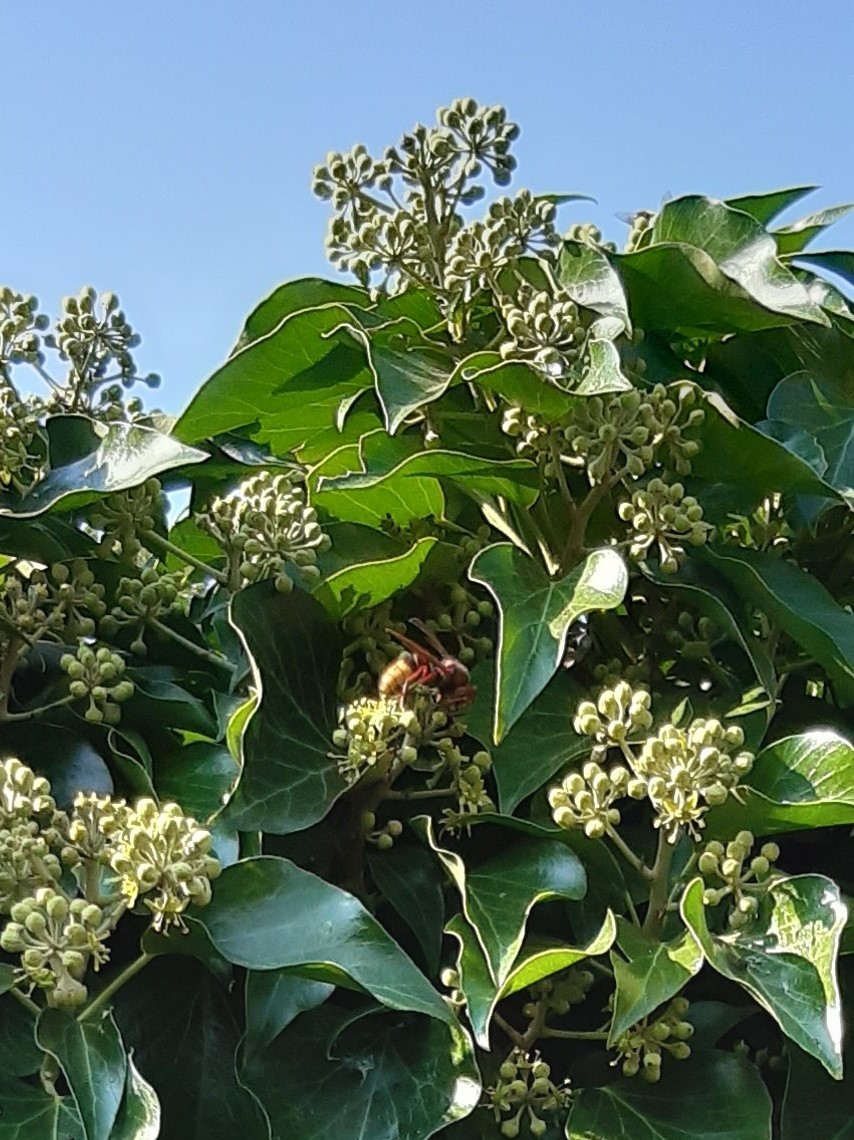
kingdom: Animalia
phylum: Arthropoda
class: Insecta
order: Hymenoptera
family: Vespidae
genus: Vespa
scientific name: Vespa crabro
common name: Hornet
